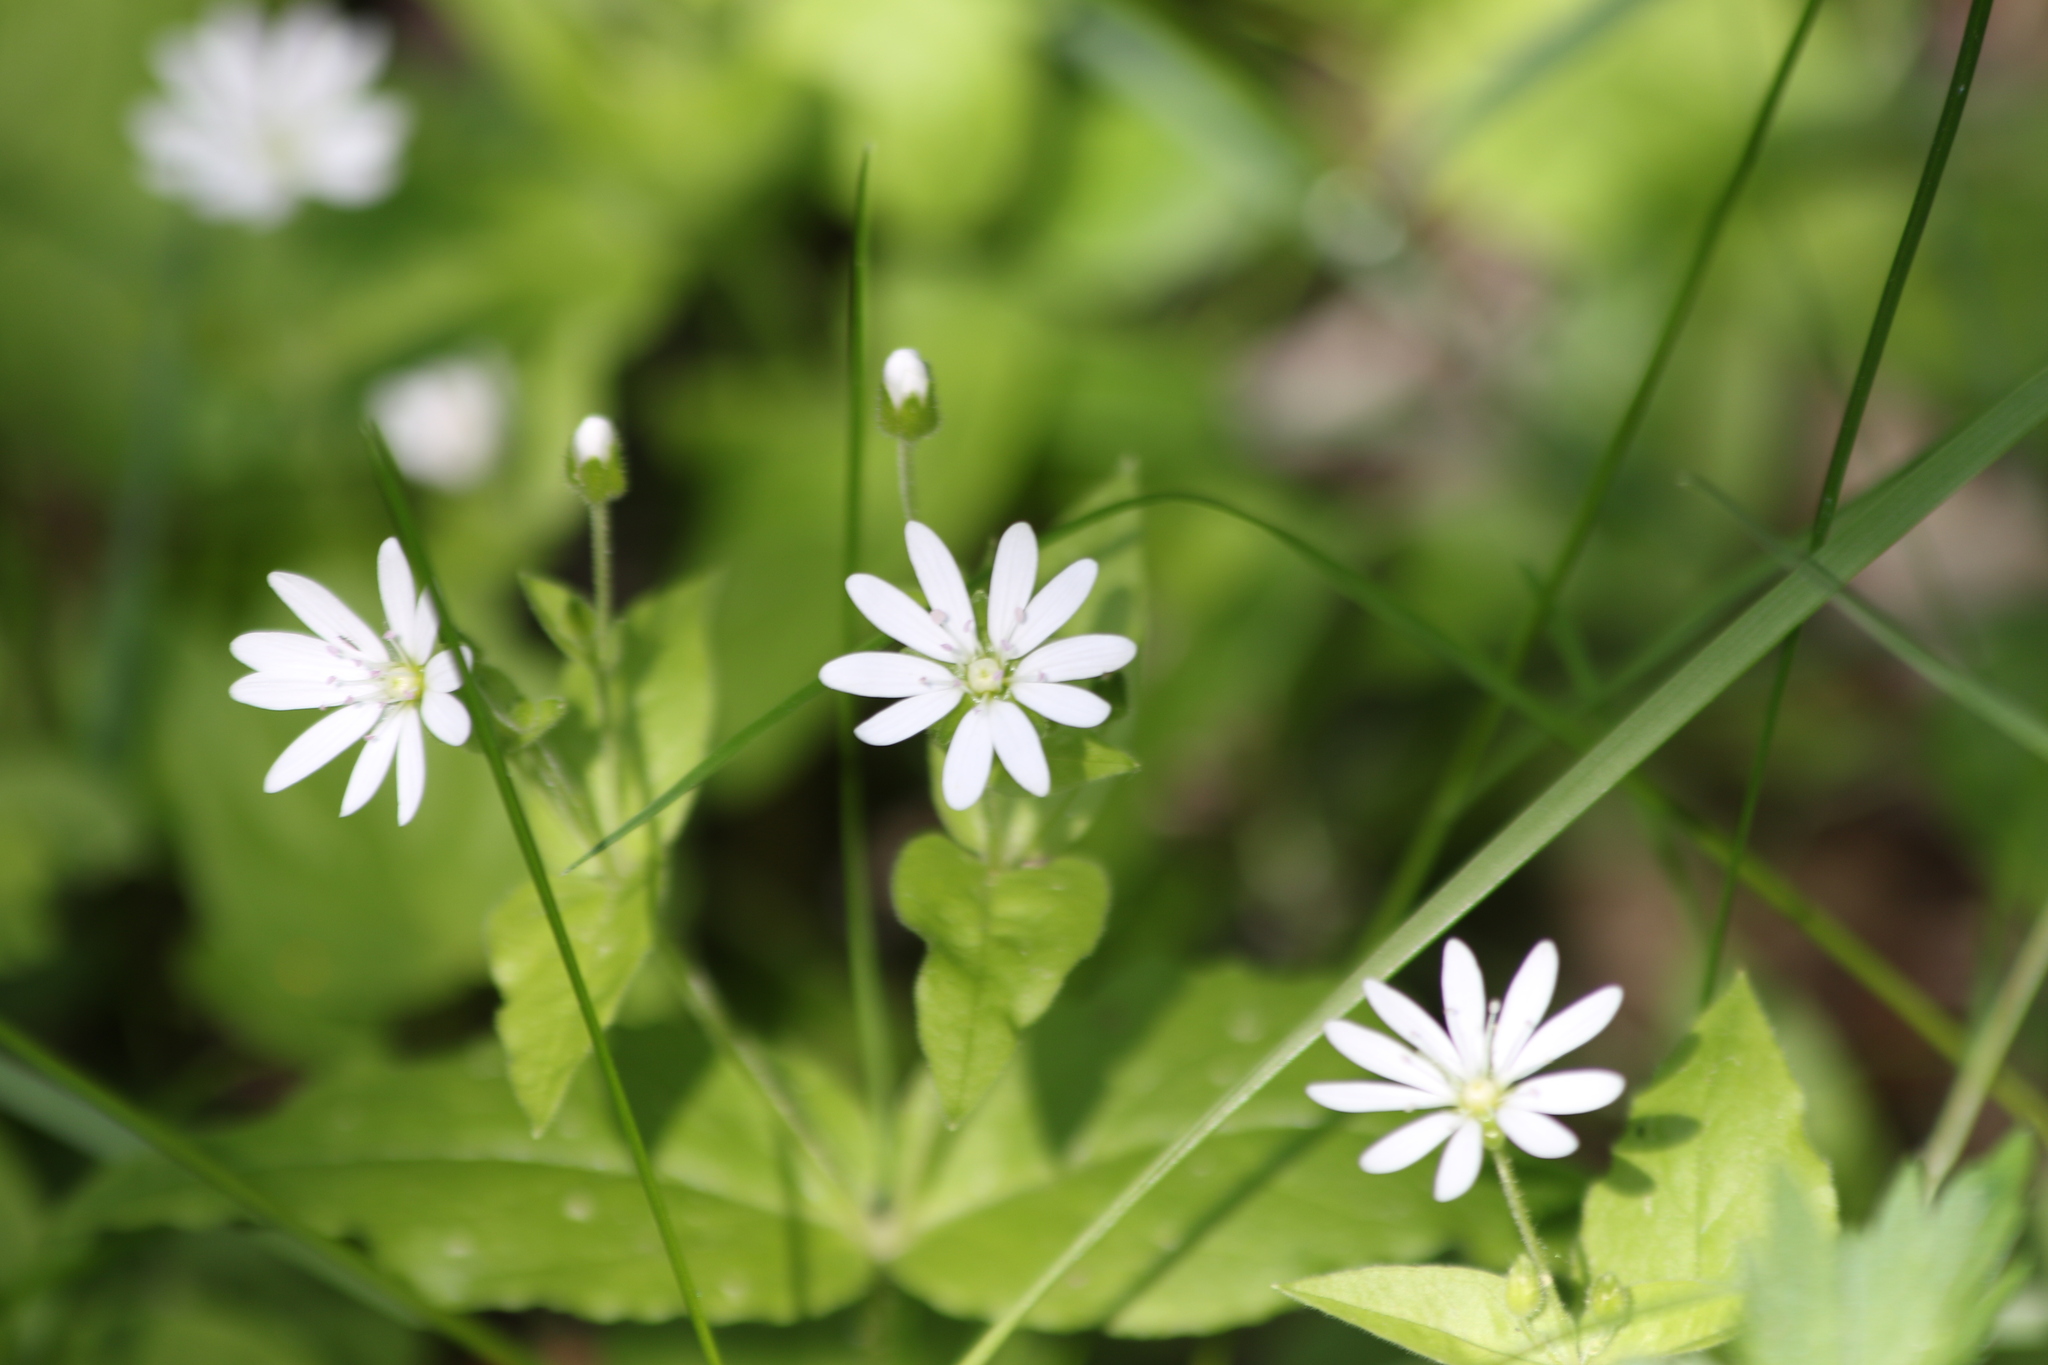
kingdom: Plantae
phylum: Tracheophyta
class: Magnoliopsida
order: Caryophyllales
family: Caryophyllaceae
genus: Stellaria
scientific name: Stellaria bungeana
